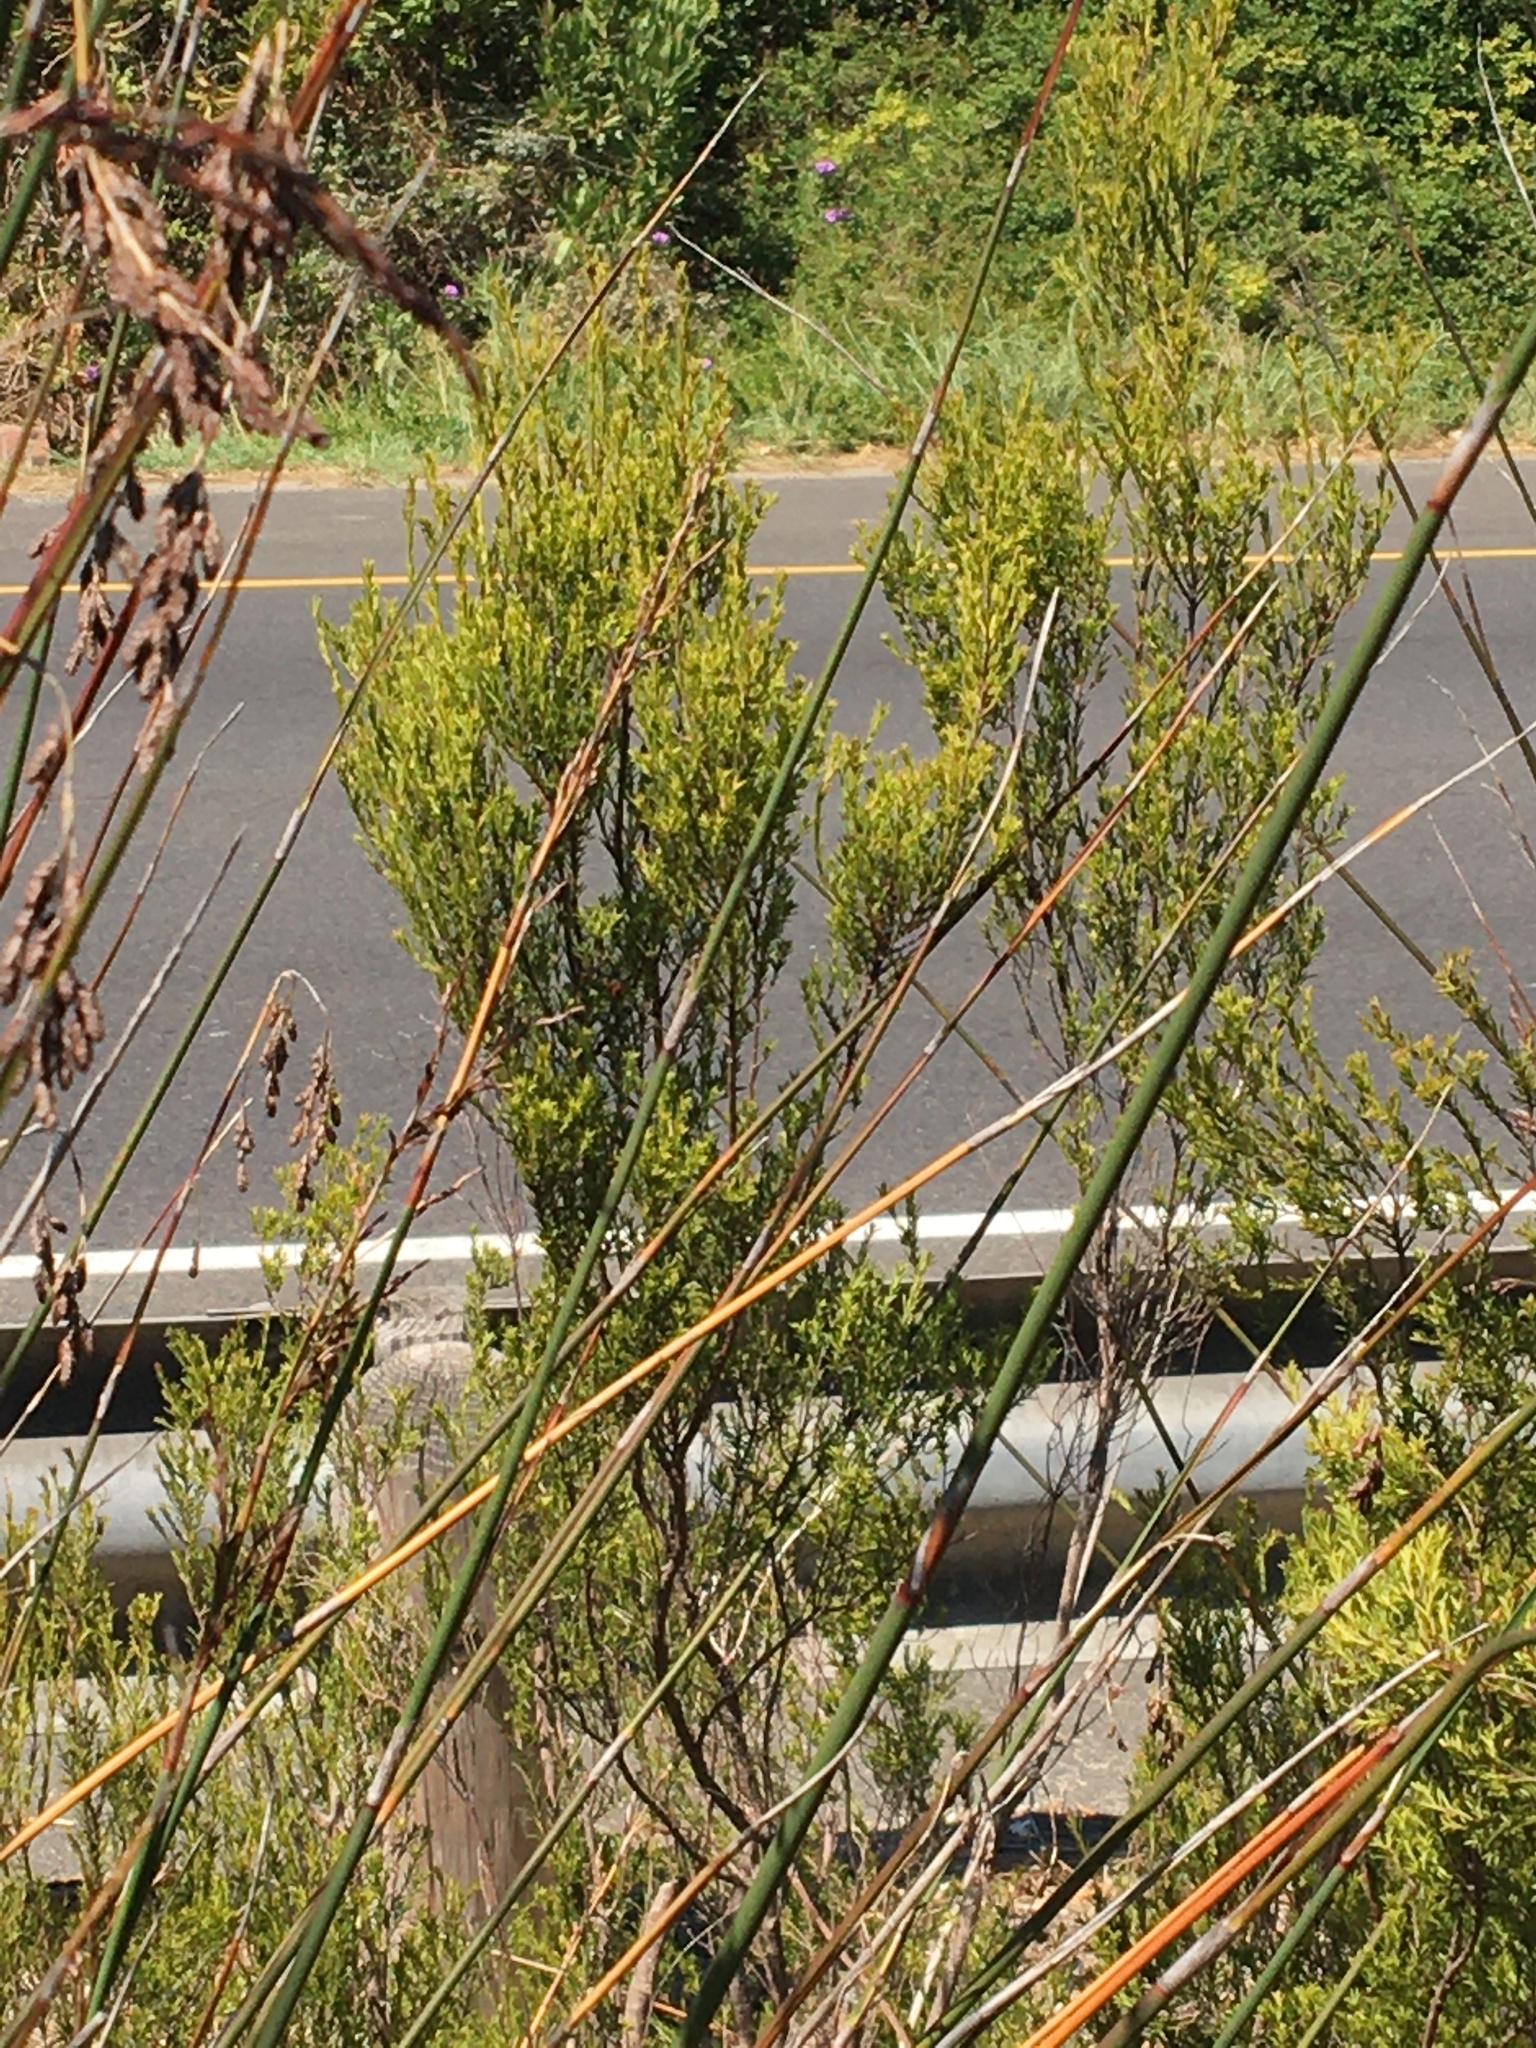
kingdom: Plantae
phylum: Tracheophyta
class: Magnoliopsida
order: Sapindales
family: Rutaceae
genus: Coleonema
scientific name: Coleonema album
